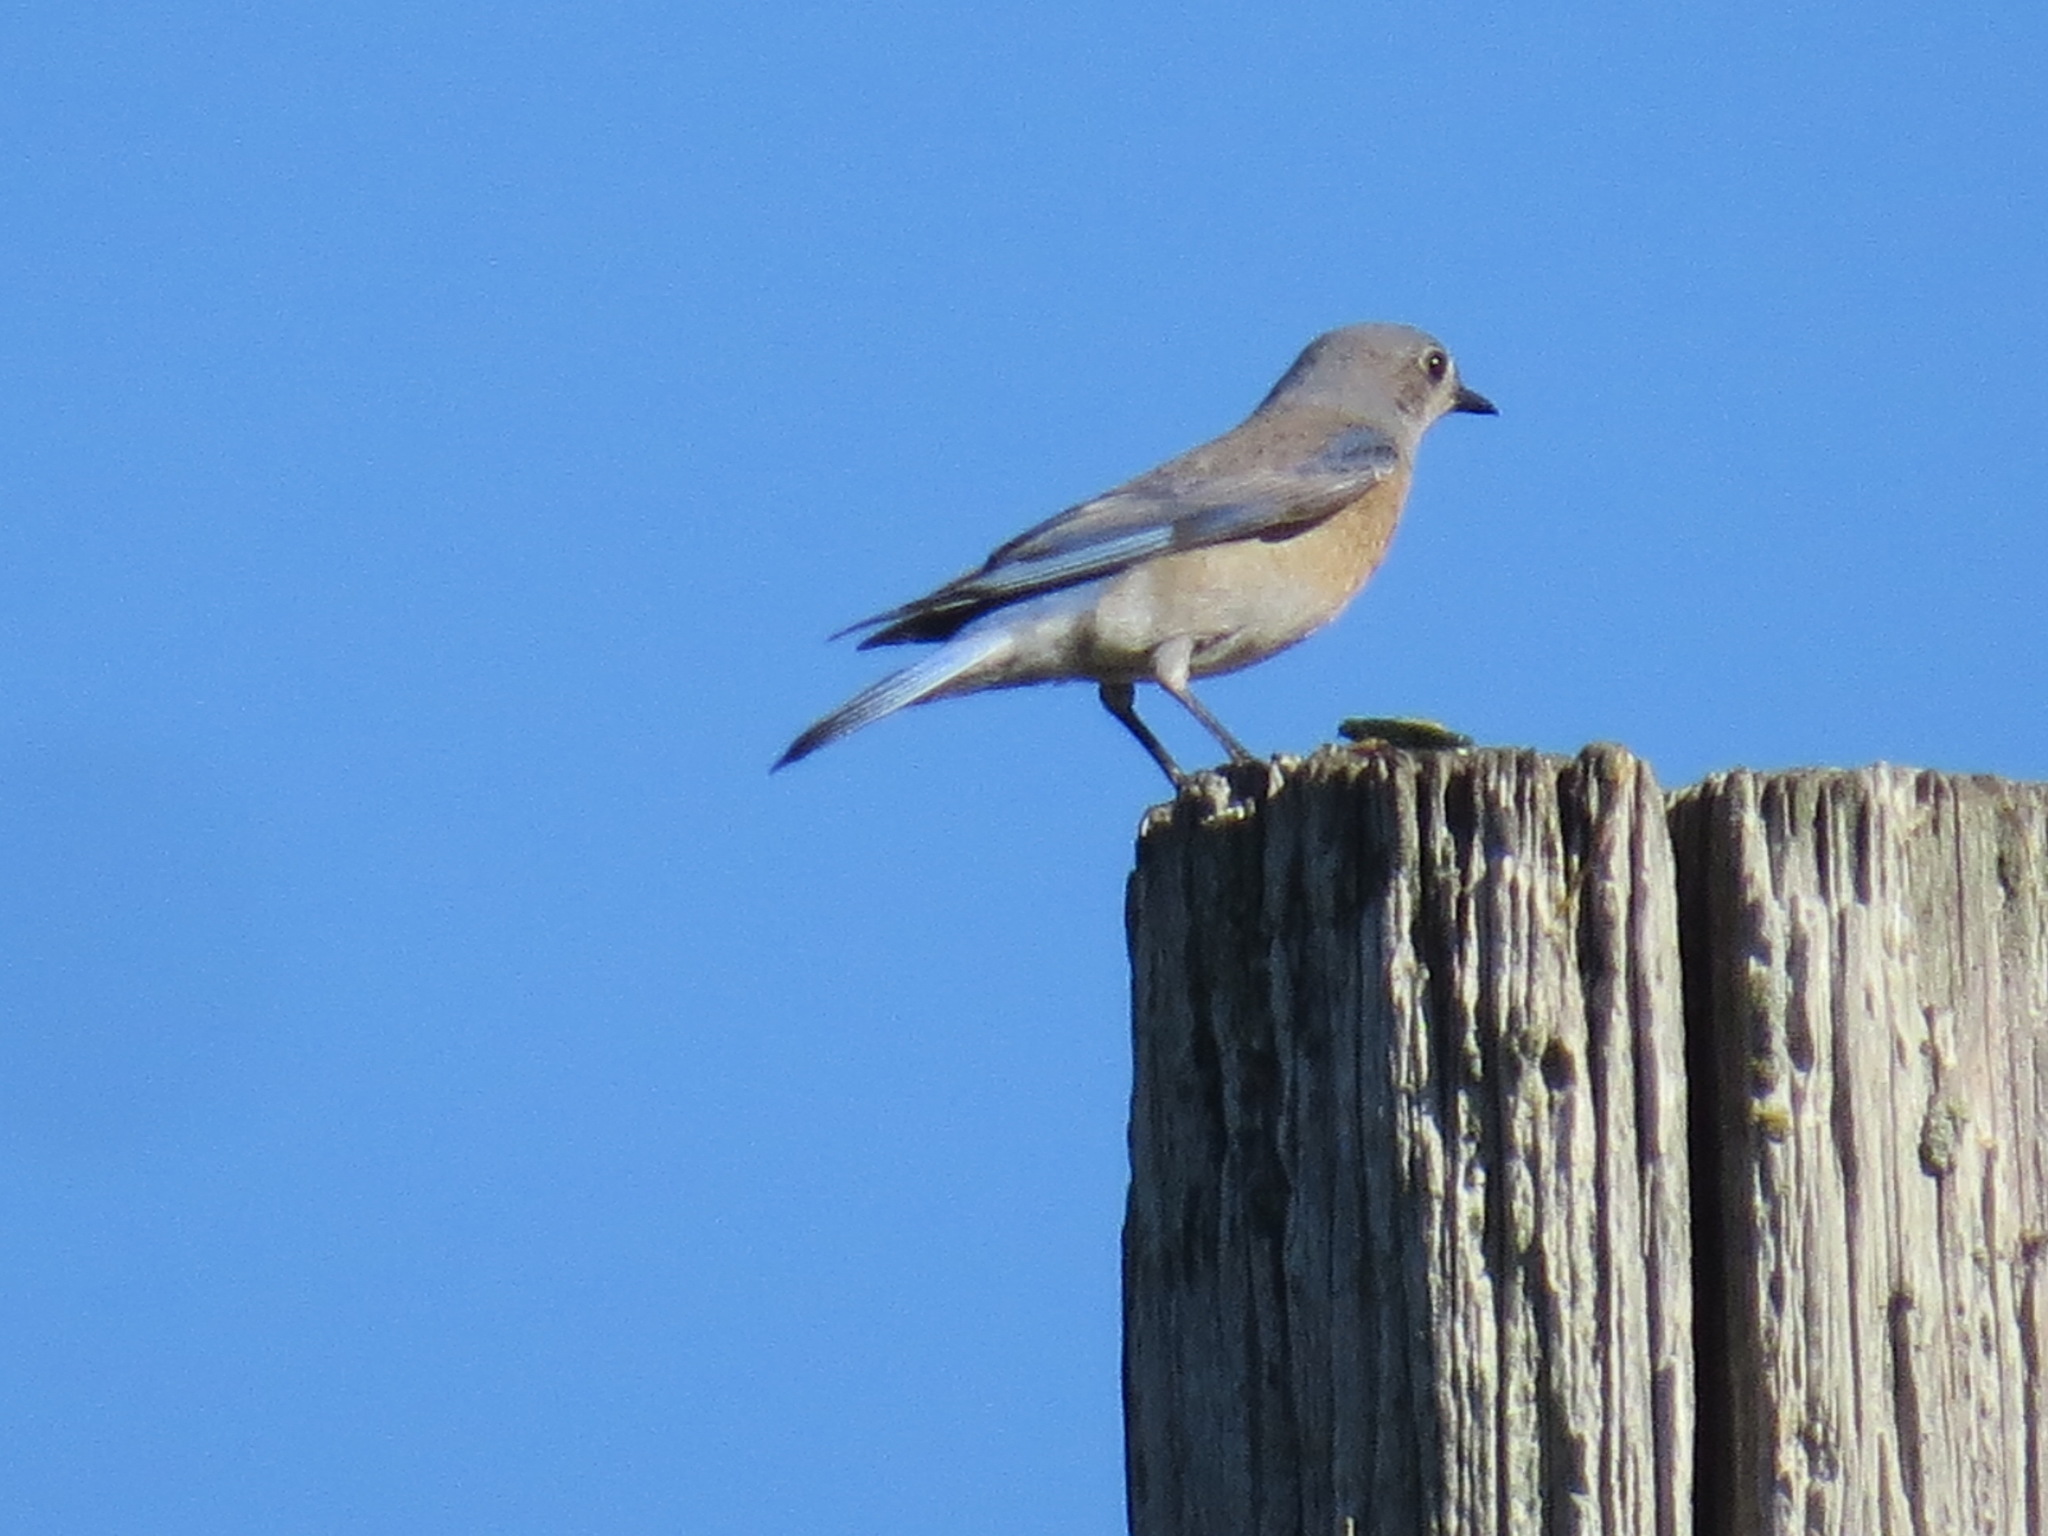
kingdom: Animalia
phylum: Chordata
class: Aves
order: Passeriformes
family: Turdidae
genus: Sialia
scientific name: Sialia mexicana
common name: Western bluebird
